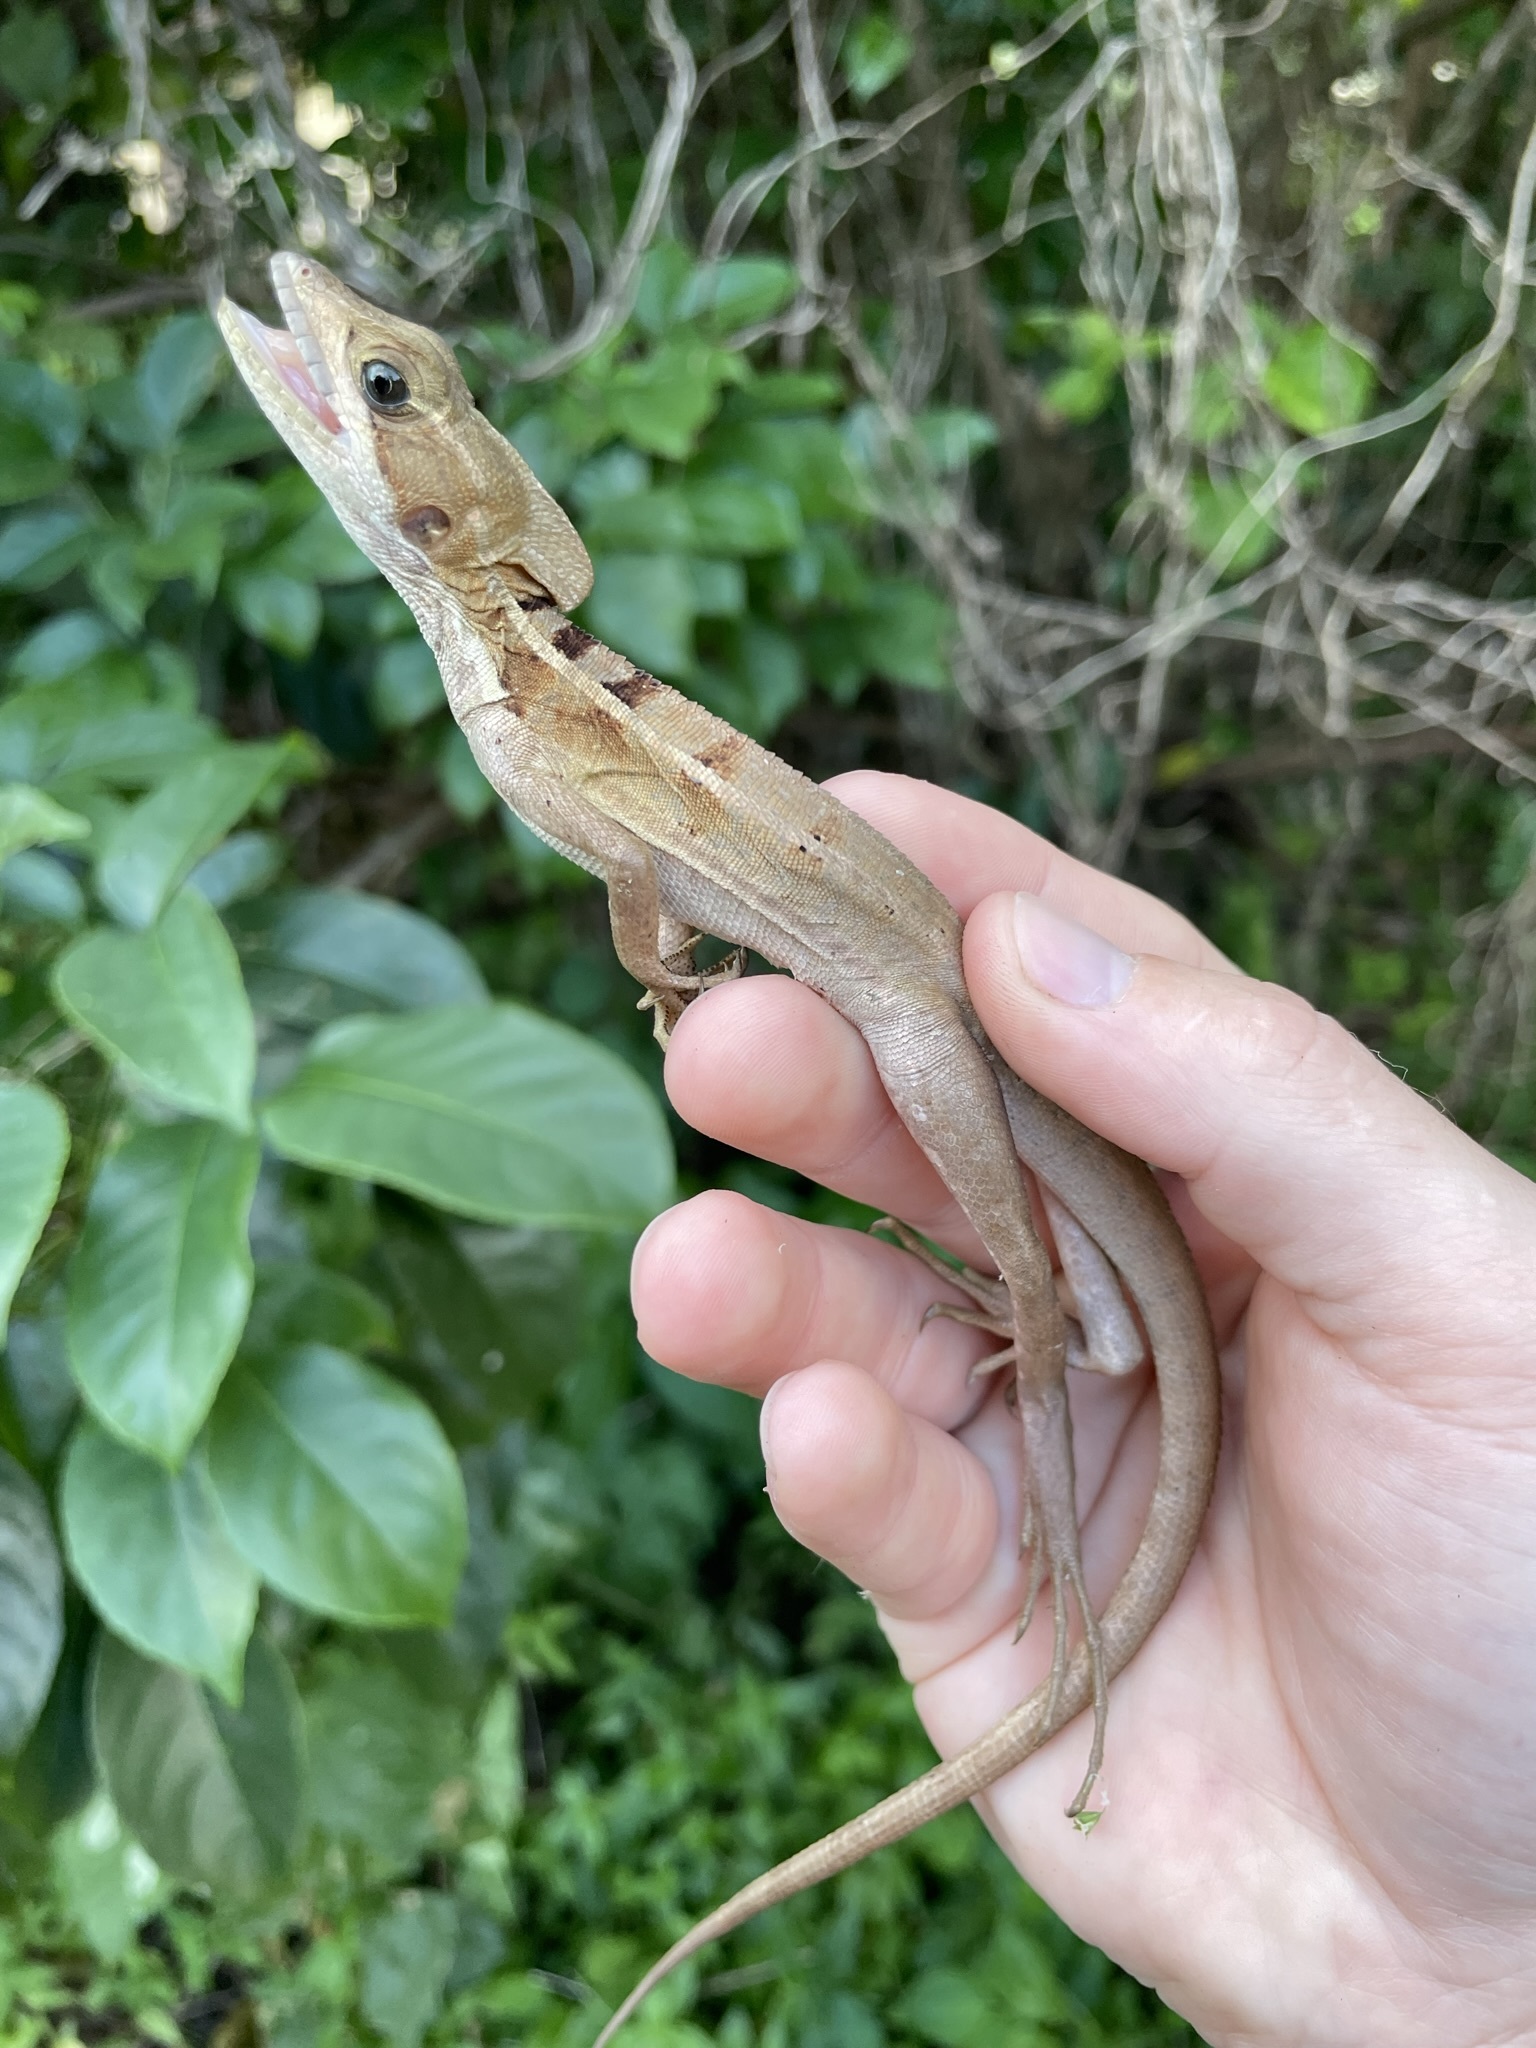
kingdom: Animalia
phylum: Chordata
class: Squamata
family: Corytophanidae
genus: Basiliscus
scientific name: Basiliscus vittatus
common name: Brown basilisk
